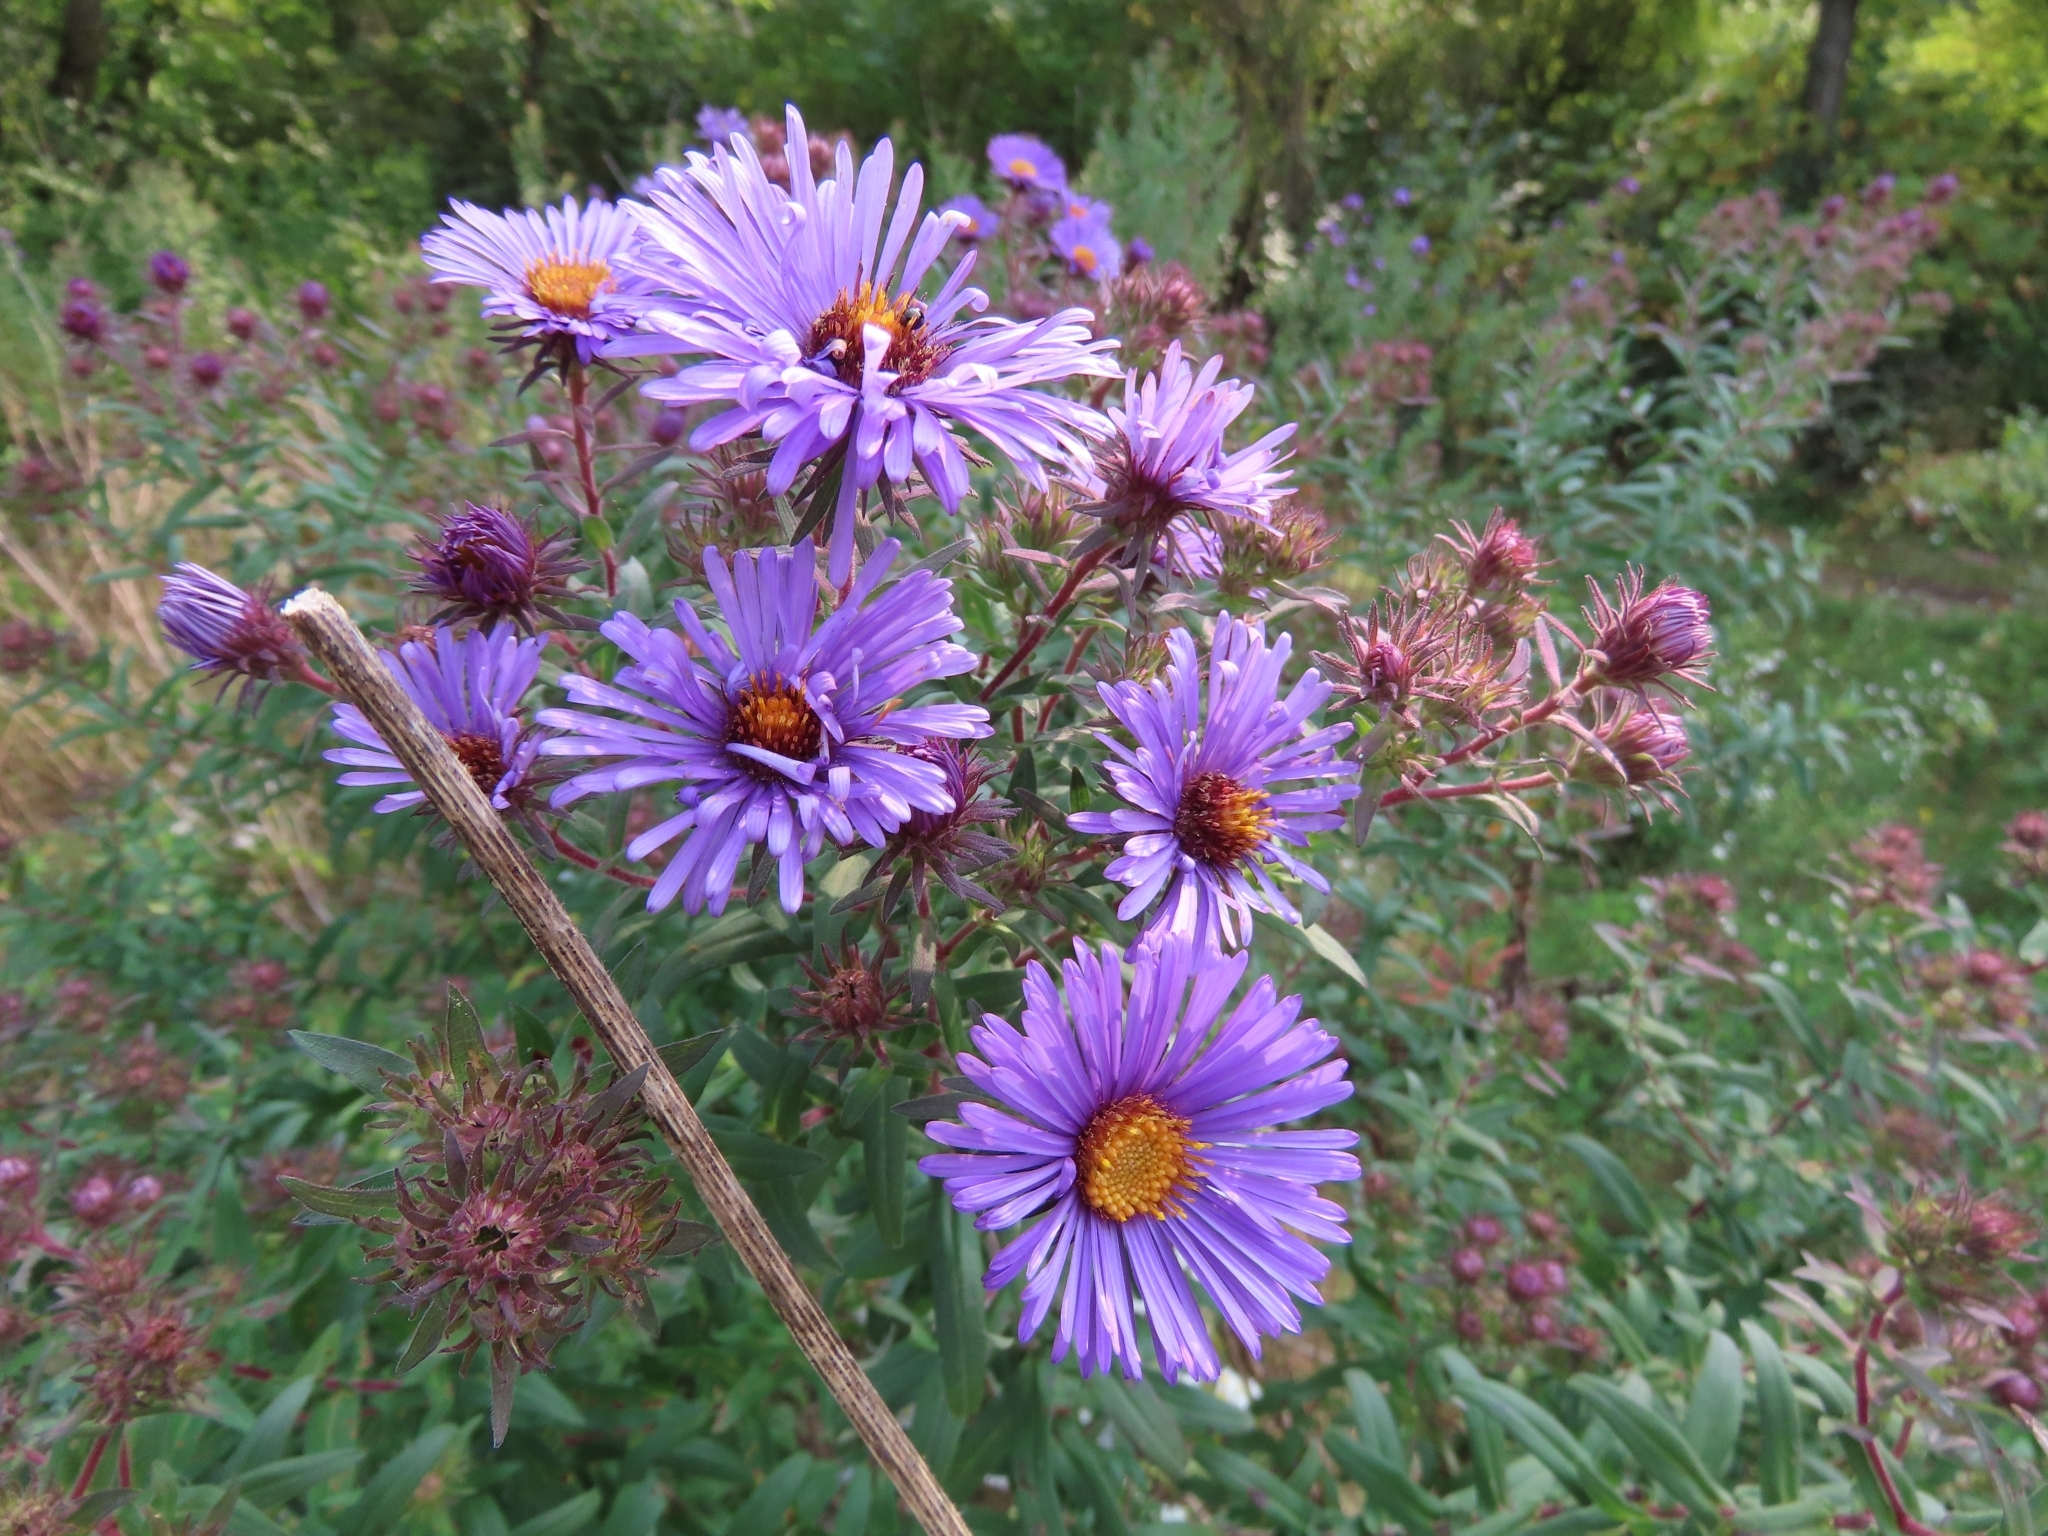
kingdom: Plantae
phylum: Tracheophyta
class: Magnoliopsida
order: Asterales
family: Asteraceae
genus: Symphyotrichum
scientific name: Symphyotrichum novae-angliae
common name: Michaelmas daisy
